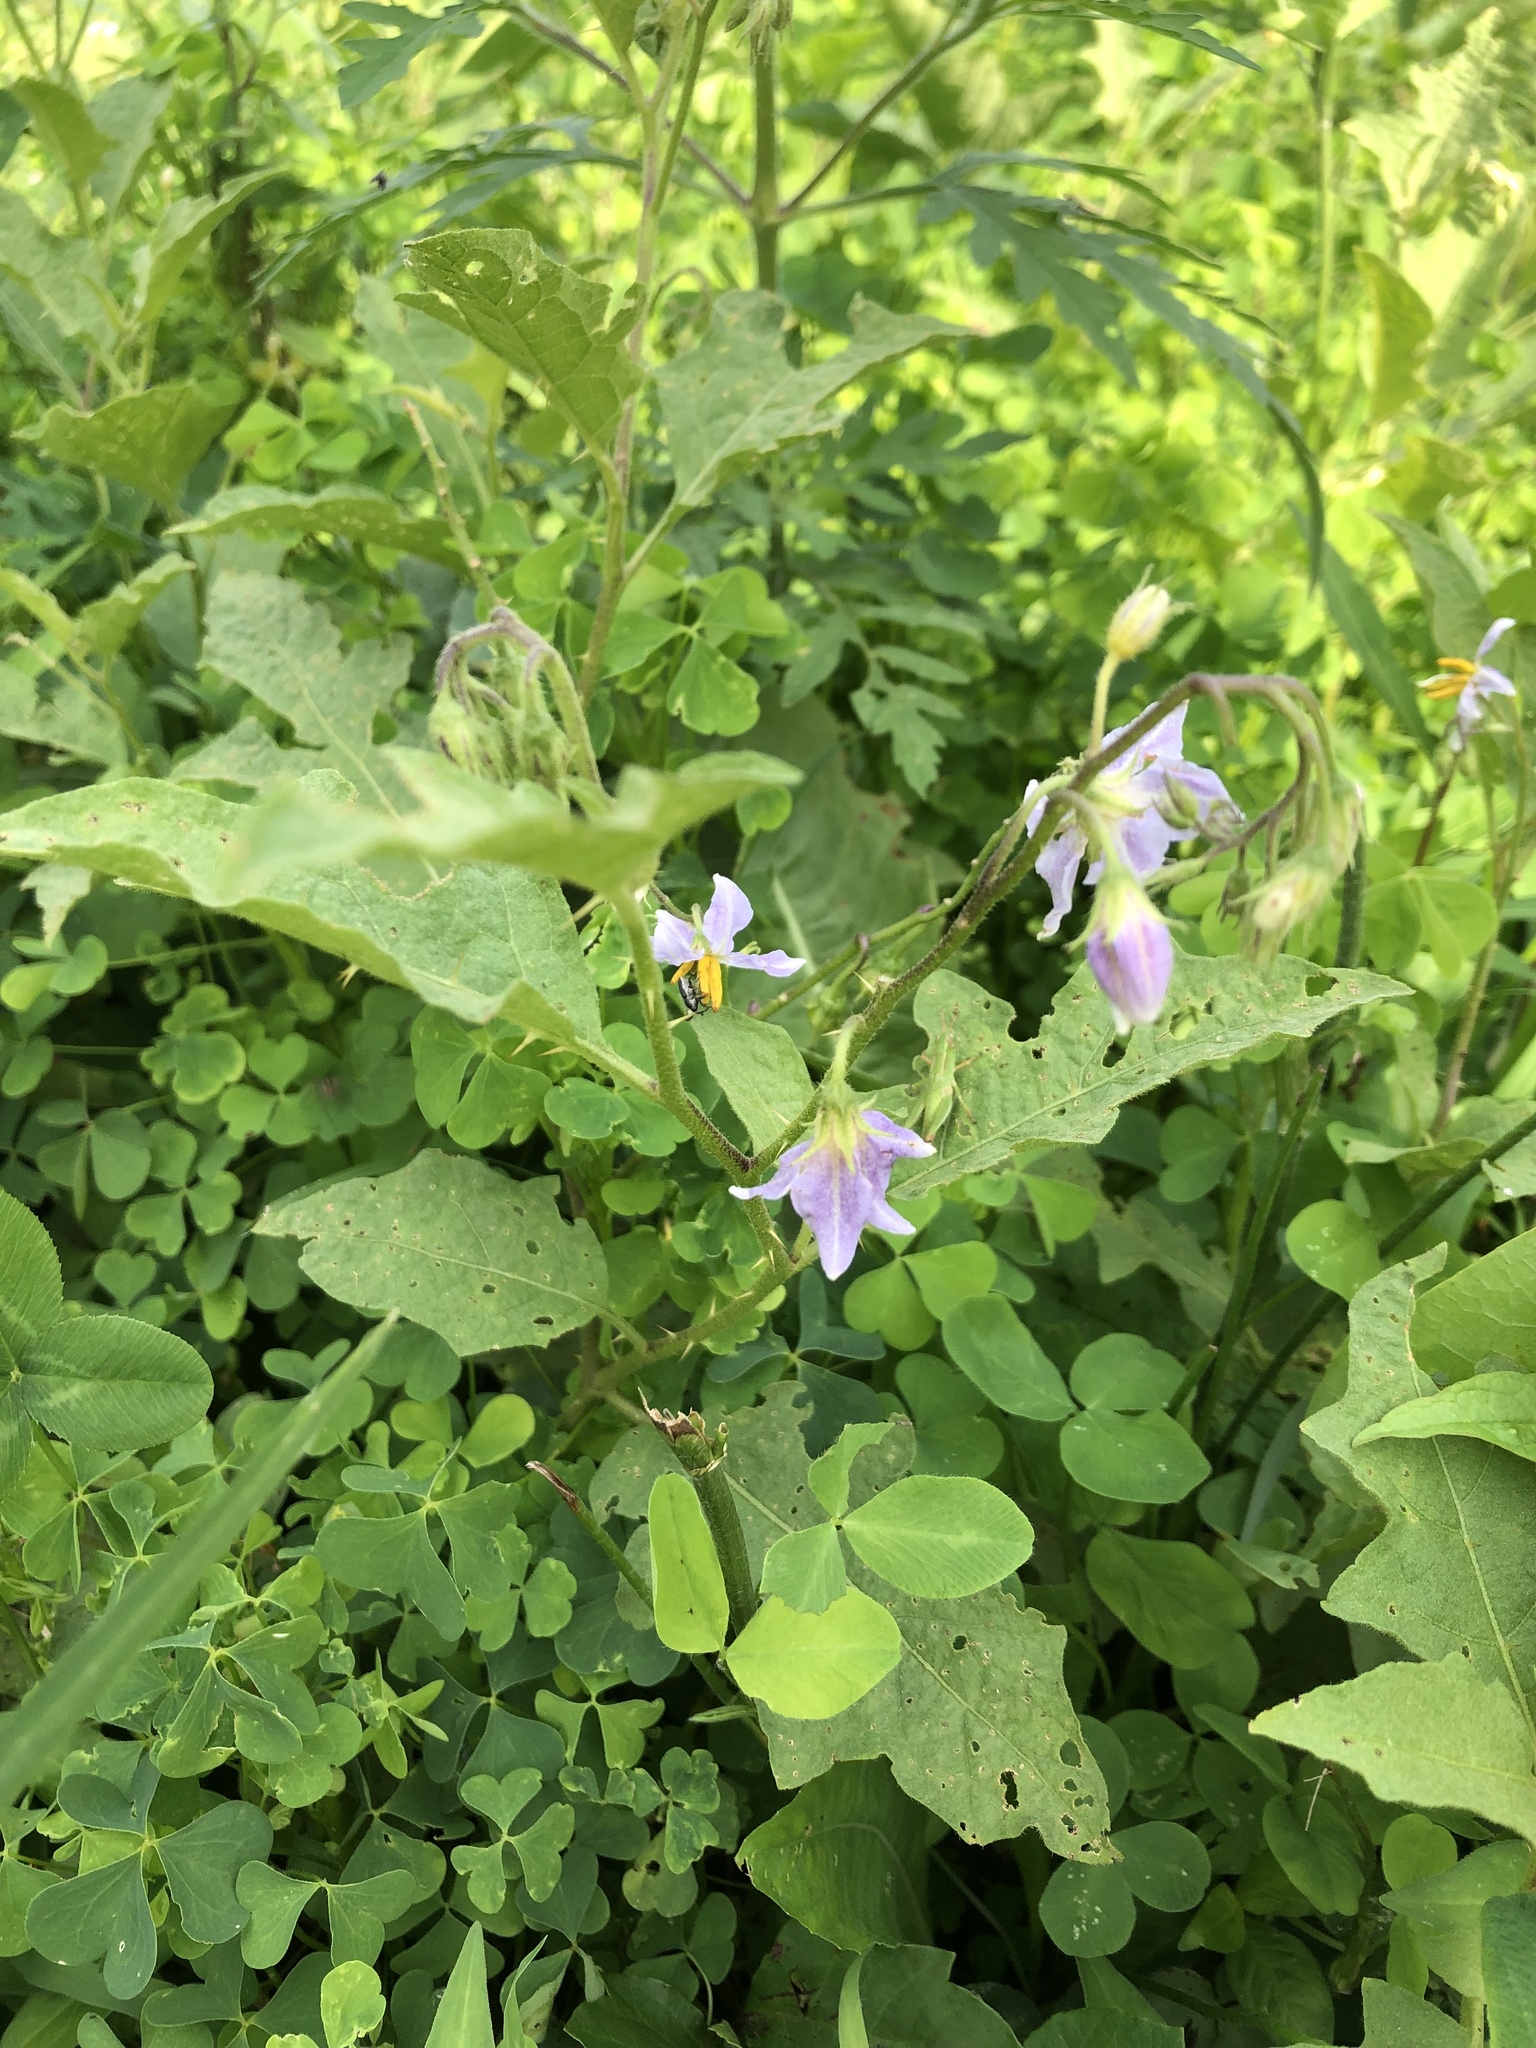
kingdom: Plantae
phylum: Tracheophyta
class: Magnoliopsida
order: Solanales
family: Solanaceae
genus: Solanum
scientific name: Solanum carolinense
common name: Horse-nettle
